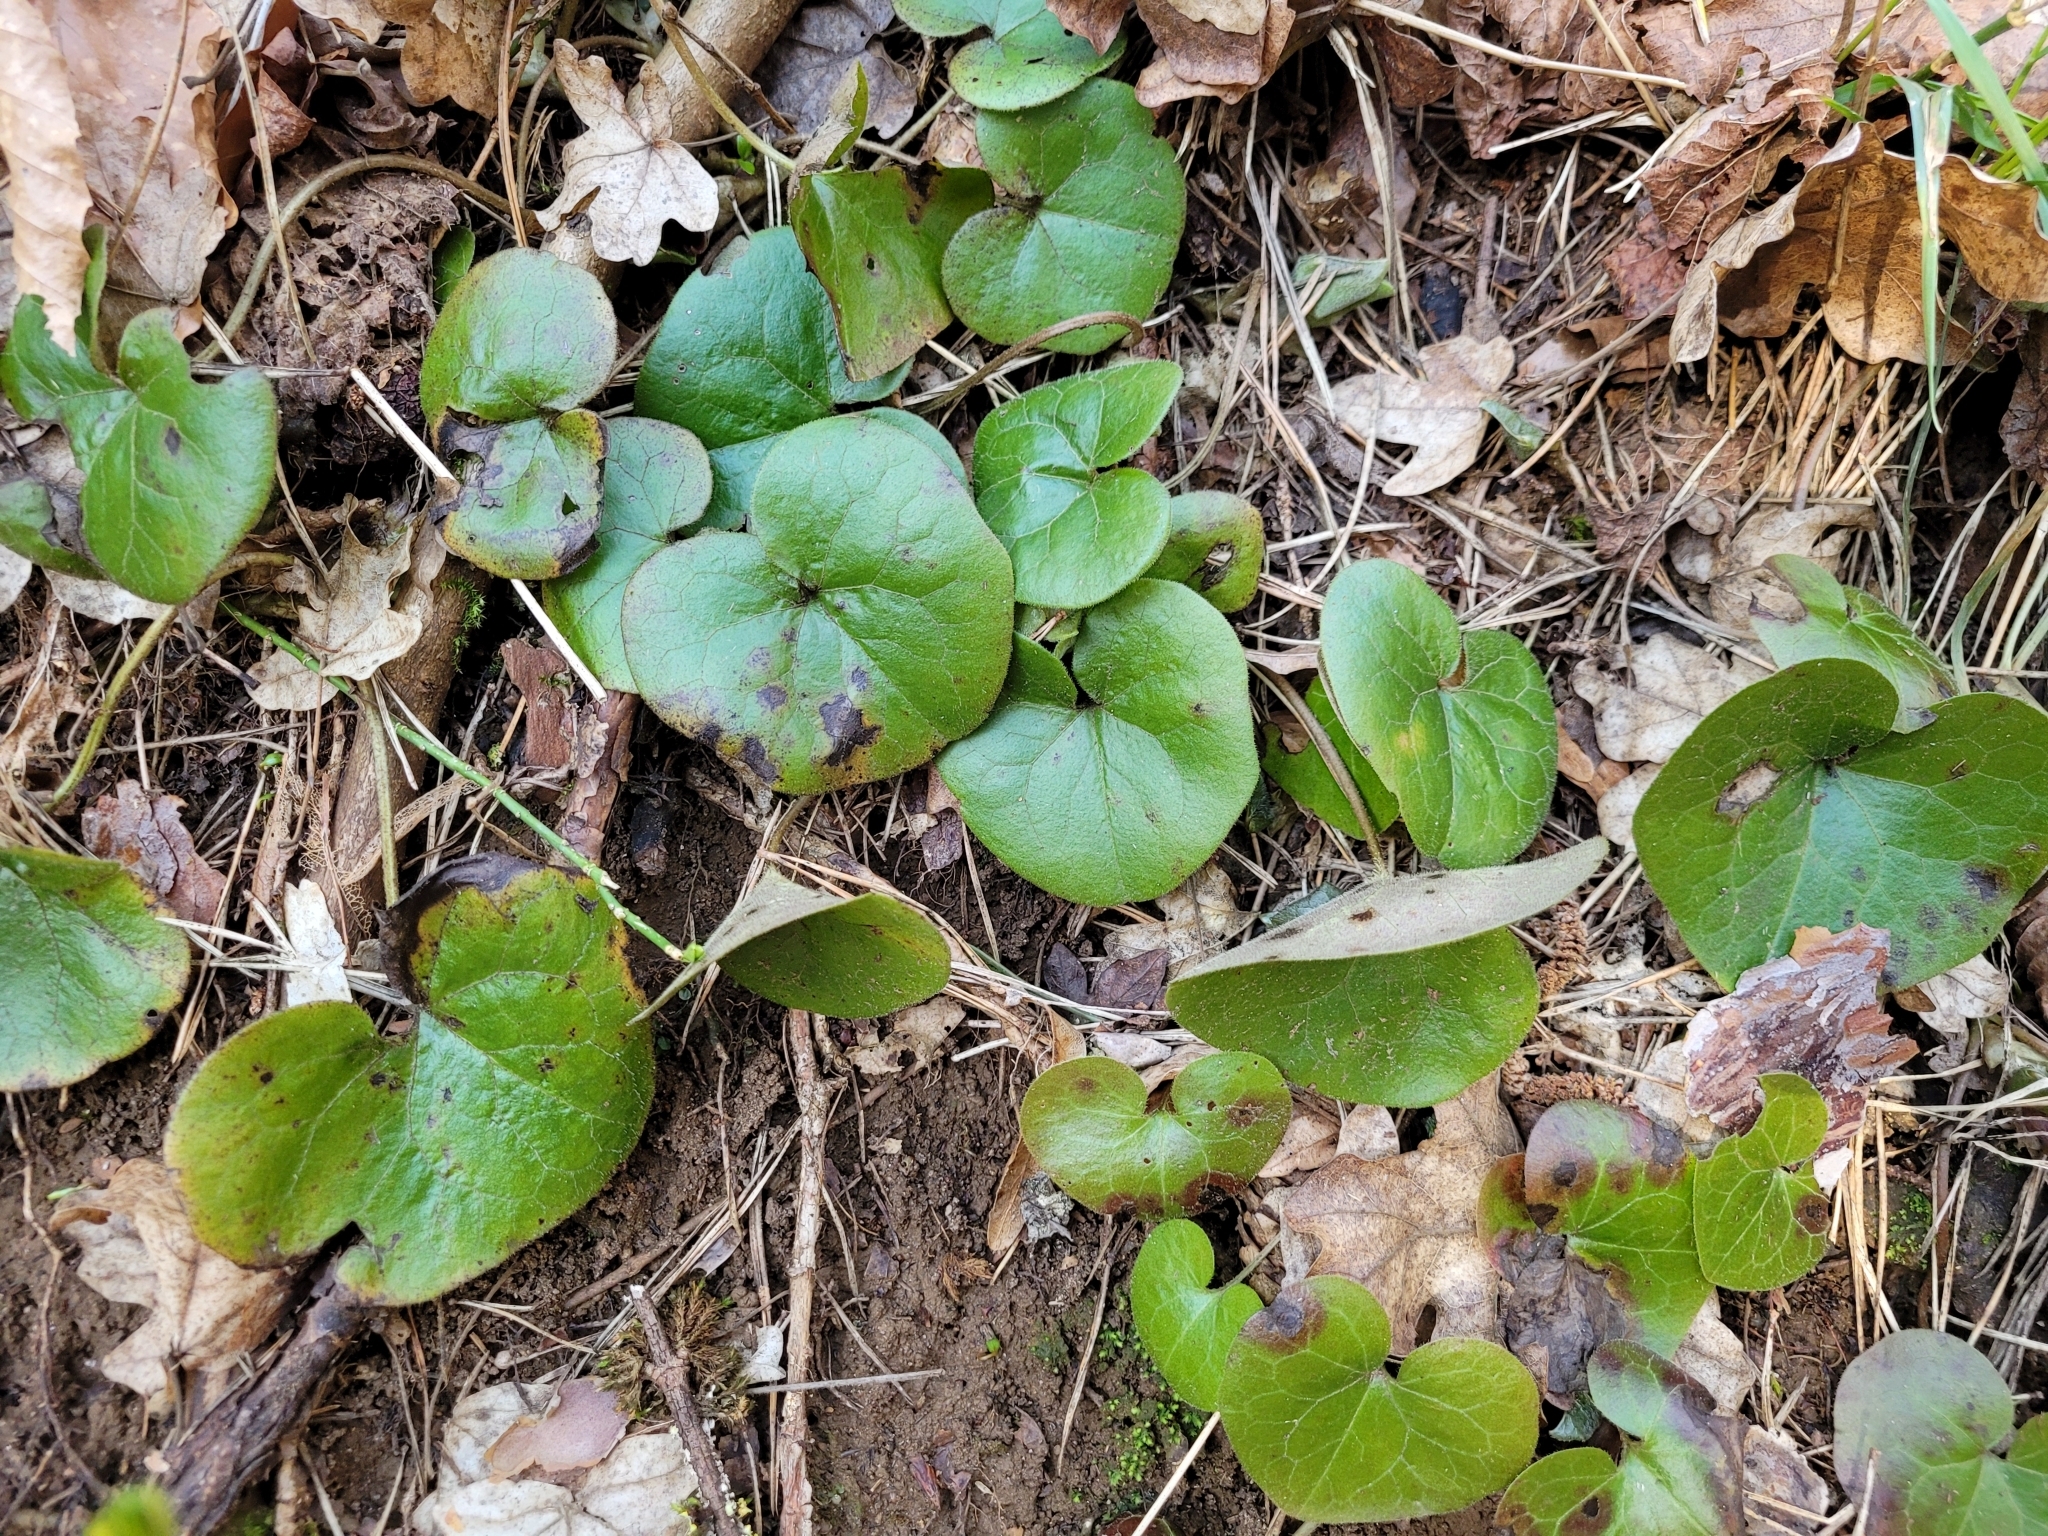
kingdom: Plantae
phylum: Tracheophyta
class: Magnoliopsida
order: Piperales
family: Aristolochiaceae
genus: Asarum
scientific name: Asarum europaeum
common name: Asarabacca
